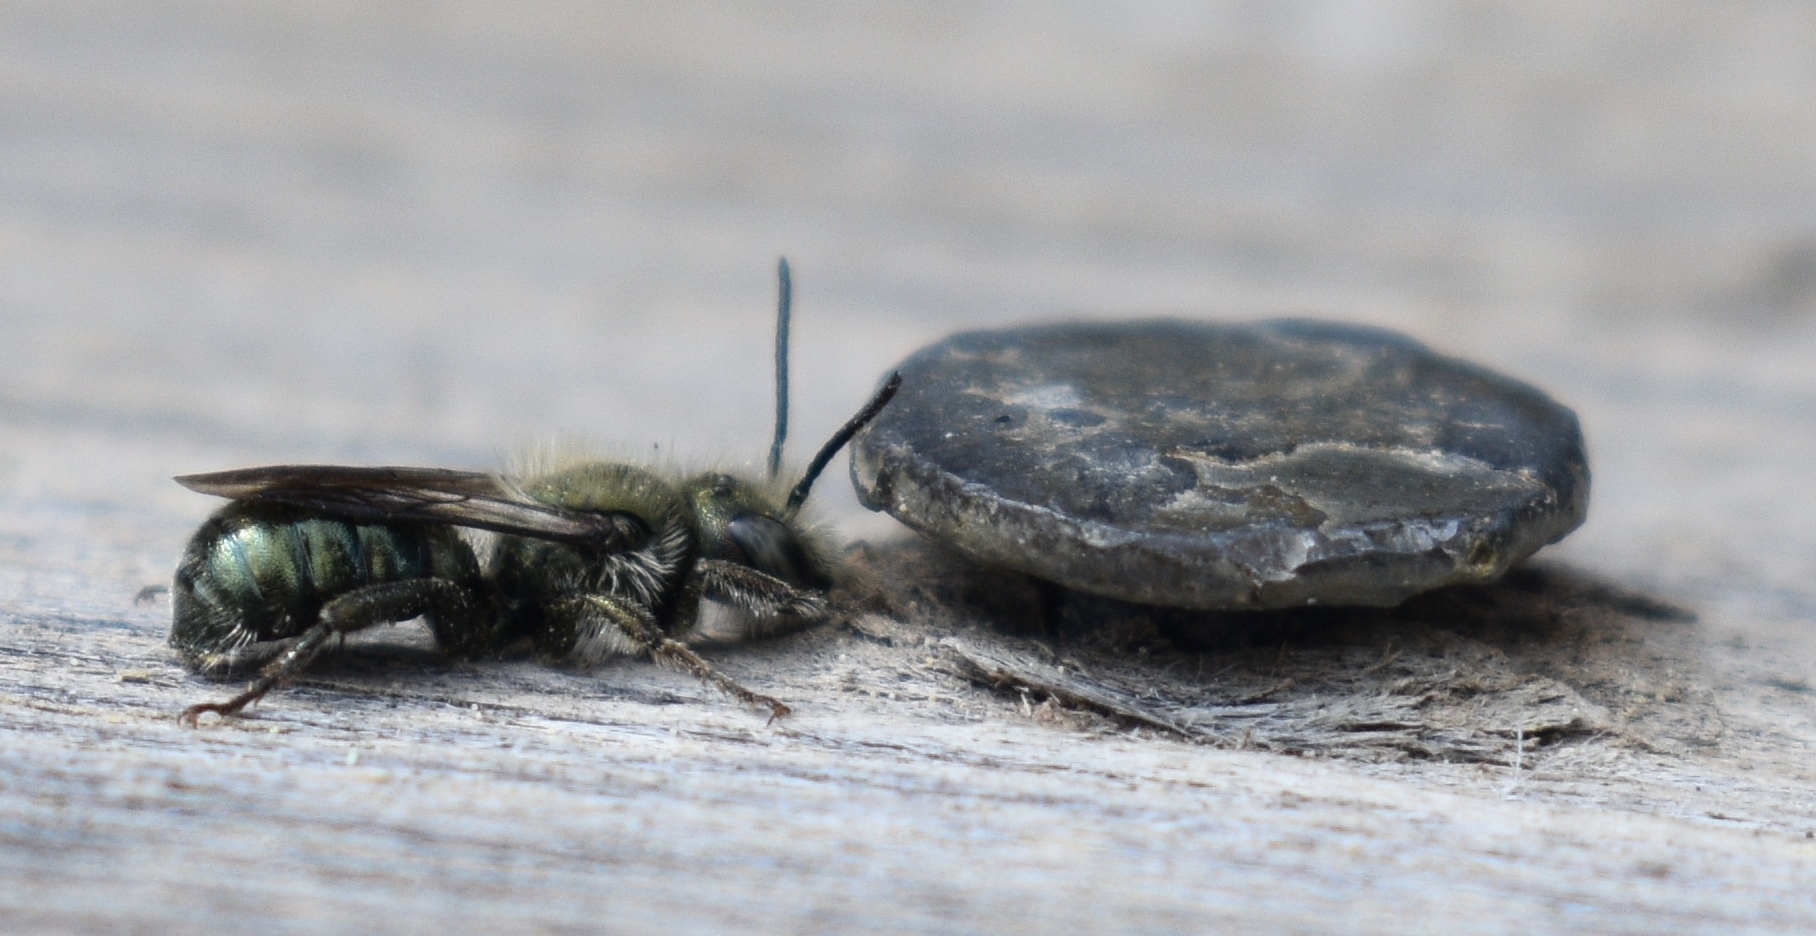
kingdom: Animalia
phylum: Arthropoda
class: Insecta
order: Hymenoptera
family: Megachilidae
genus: Osmia
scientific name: Osmia
